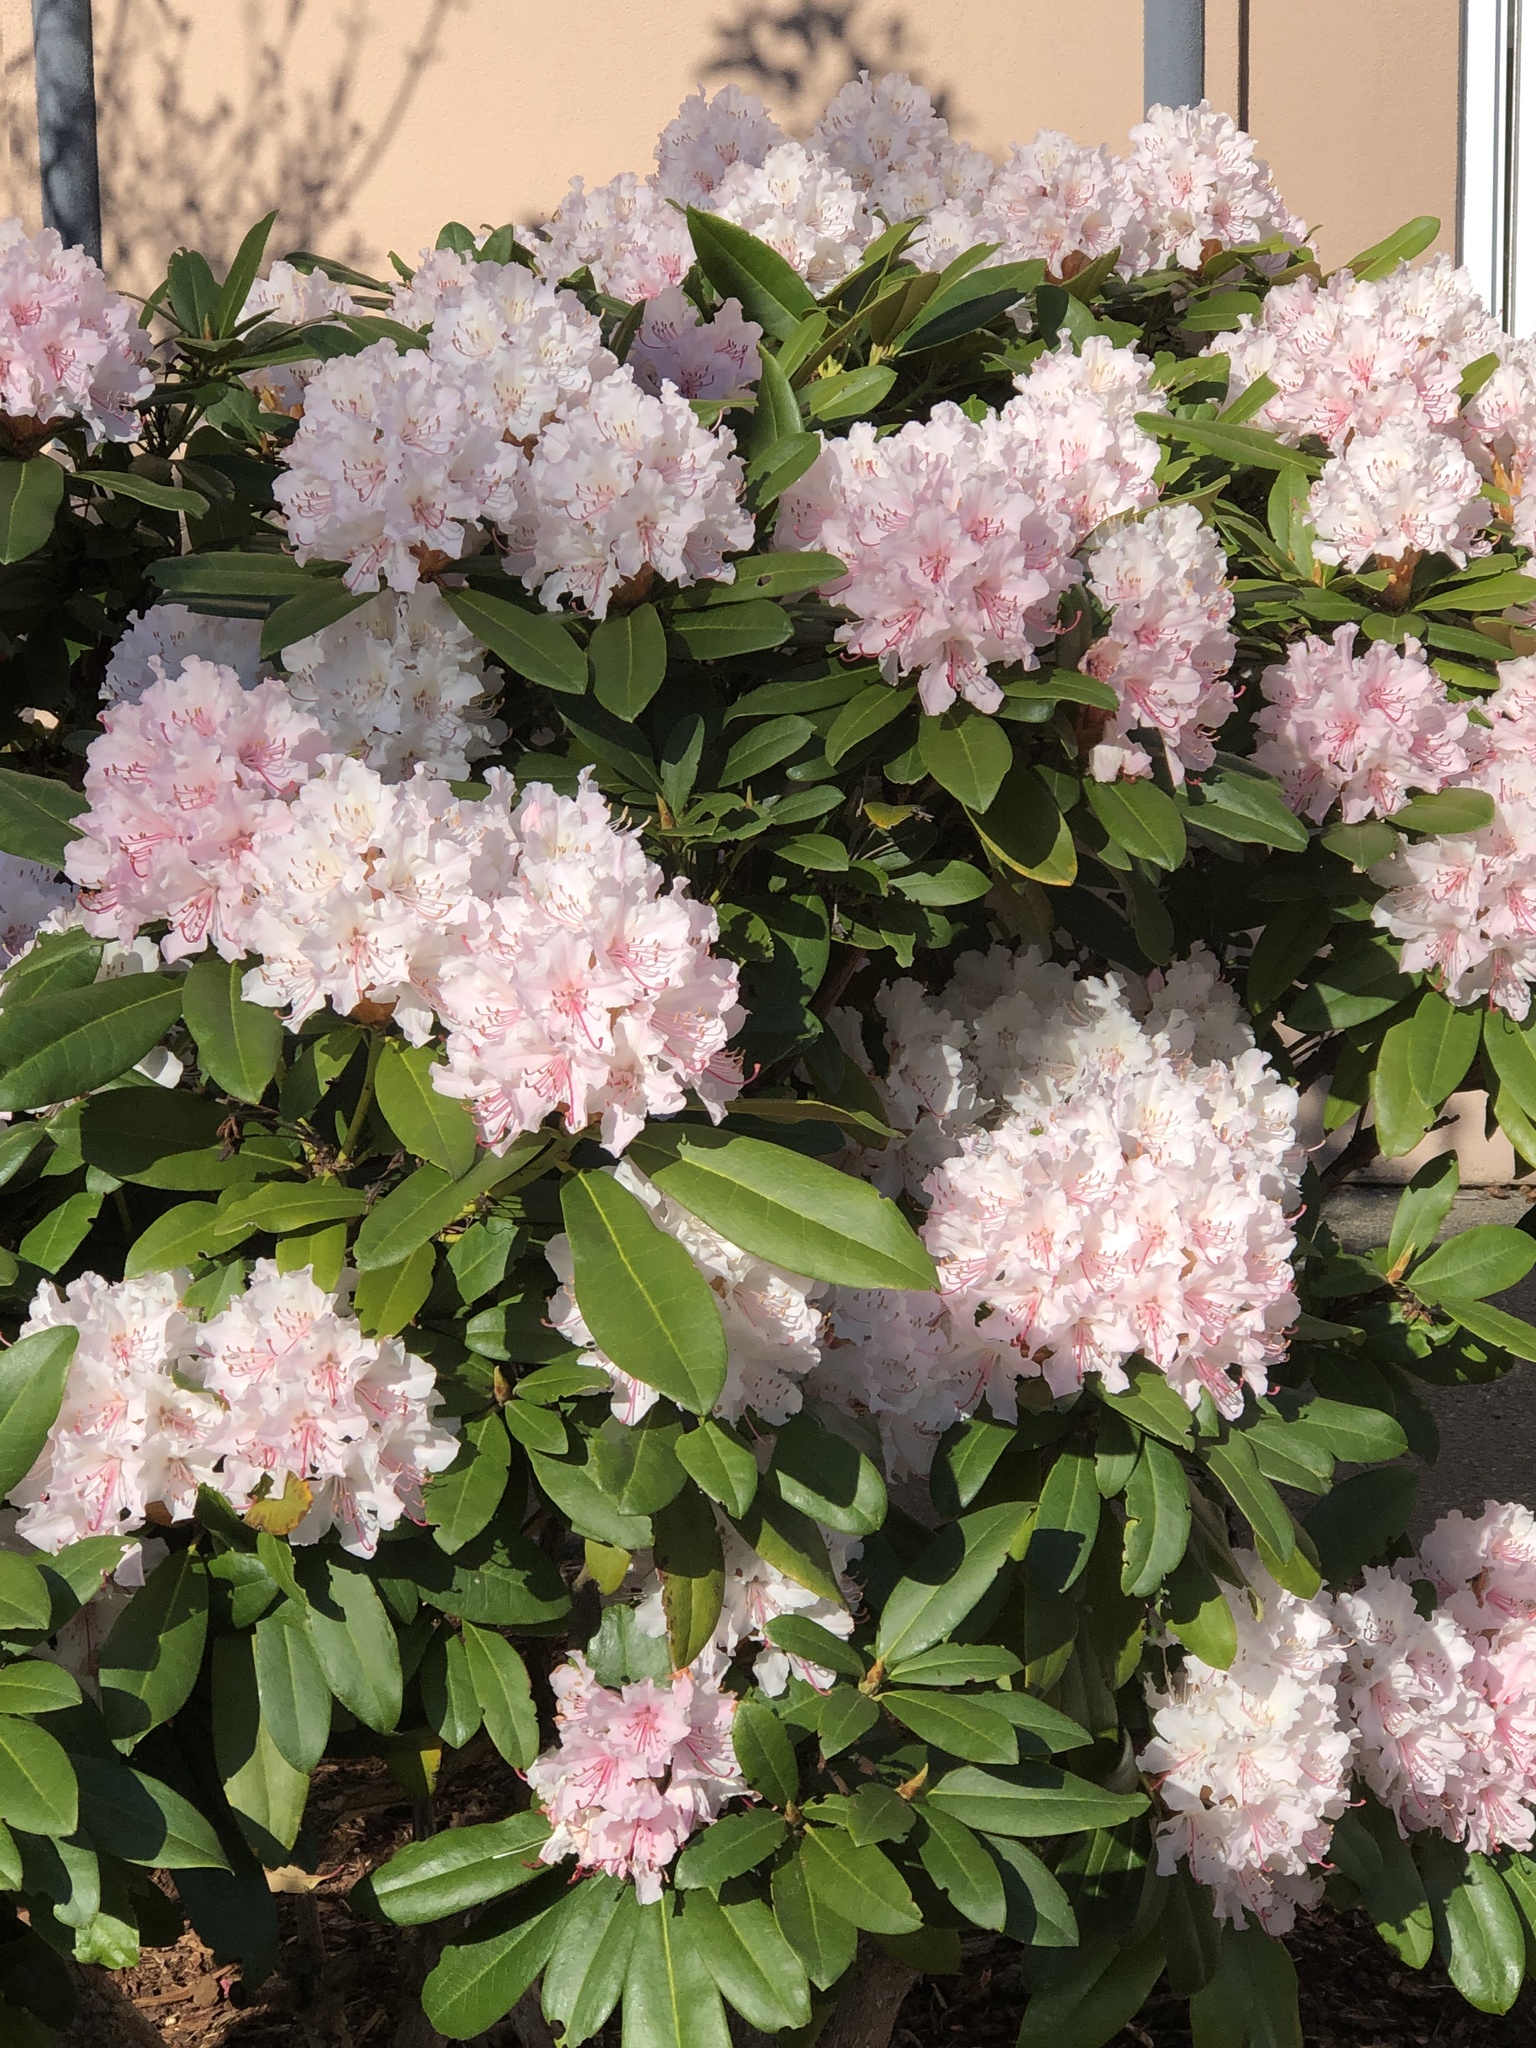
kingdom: Plantae
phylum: Tracheophyta
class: Magnoliopsida
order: Ericales
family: Ericaceae
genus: Rhododendron
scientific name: Rhododendron hybridum
